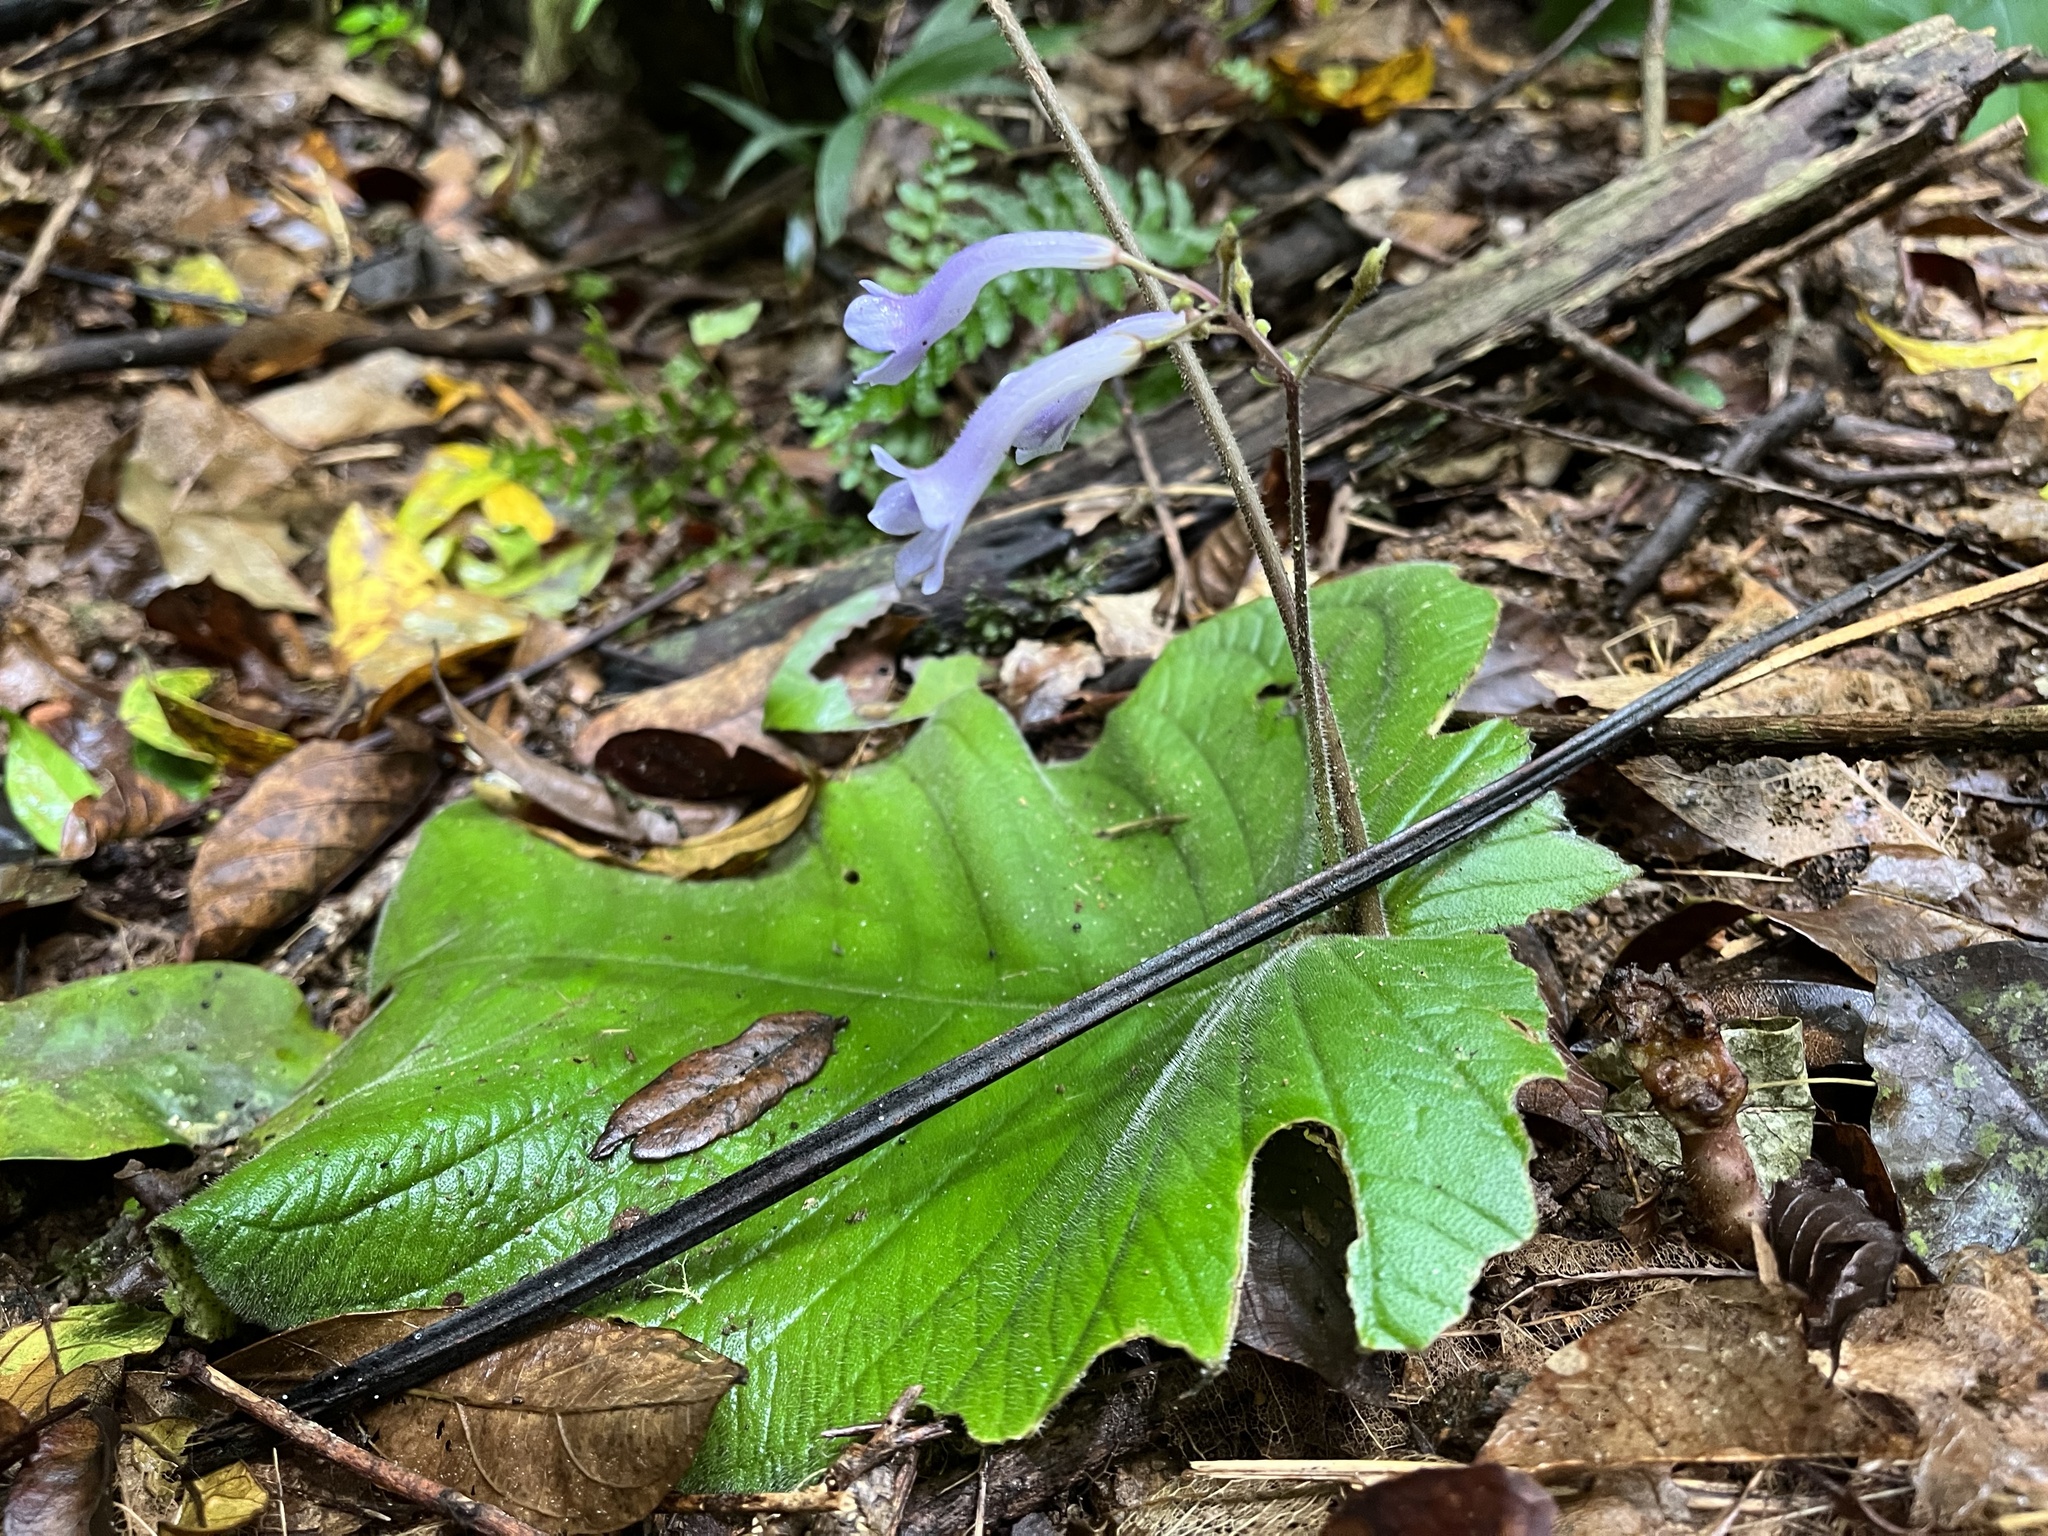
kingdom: Plantae
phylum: Tracheophyta
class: Magnoliopsida
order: Lamiales
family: Gesneriaceae
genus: Streptocarpus
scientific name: Streptocarpus grandis
